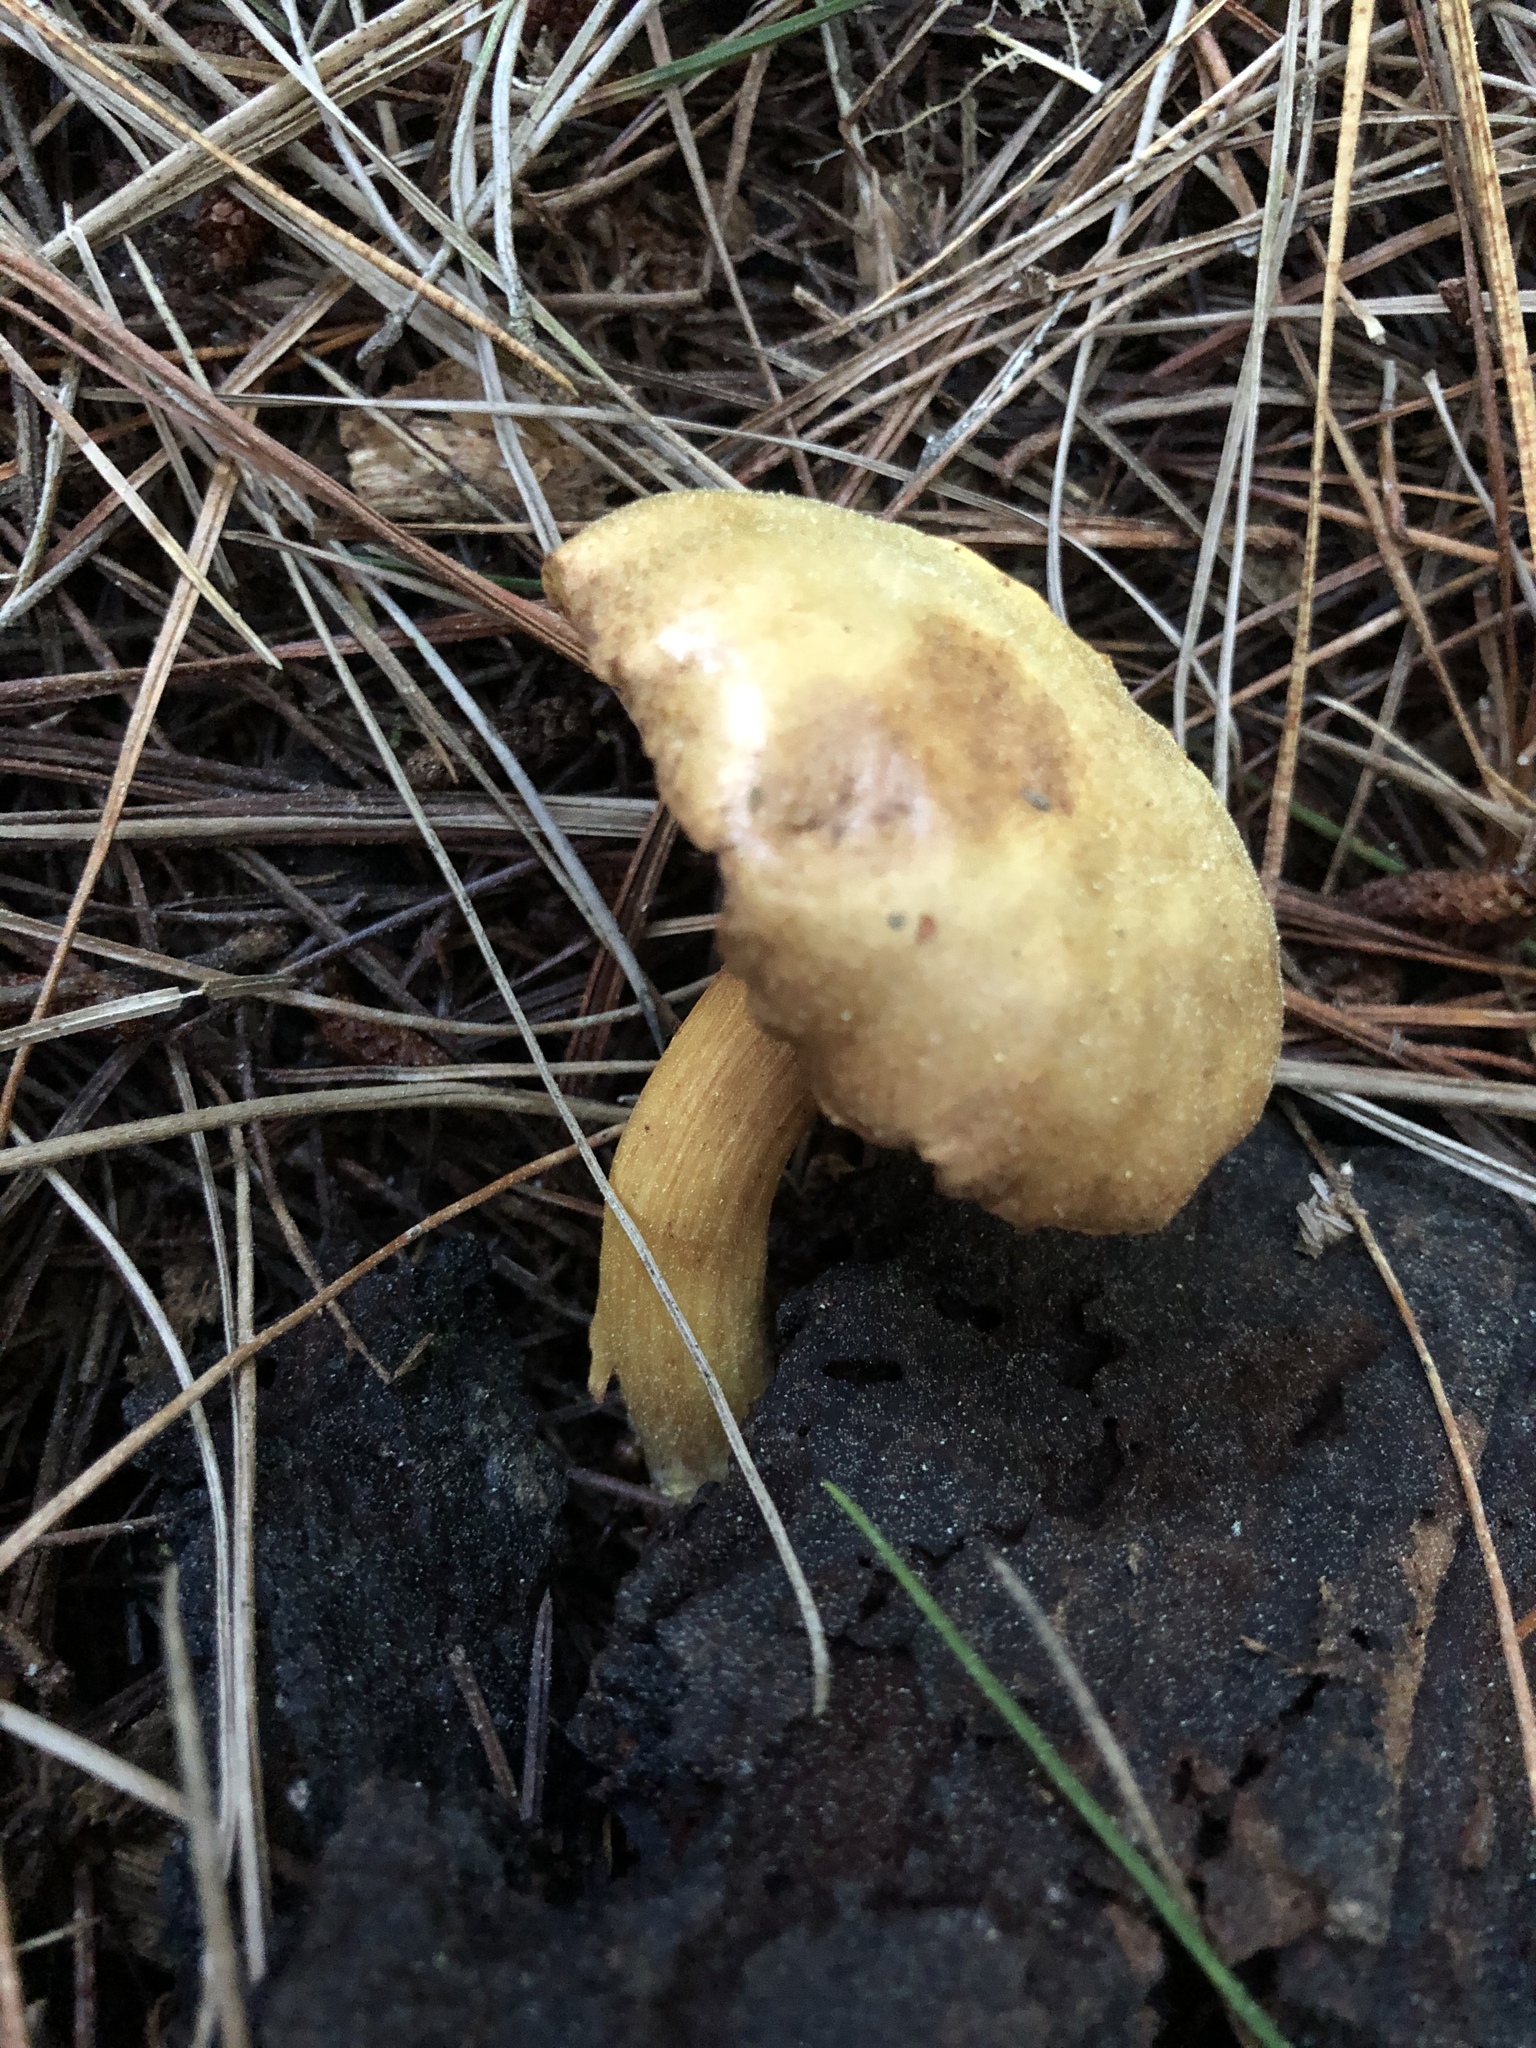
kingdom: Fungi
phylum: Basidiomycota
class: Agaricomycetes
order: Boletales
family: Boletaceae
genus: Chalciporus
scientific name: Chalciporus piperatus
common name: Peppery bolete
